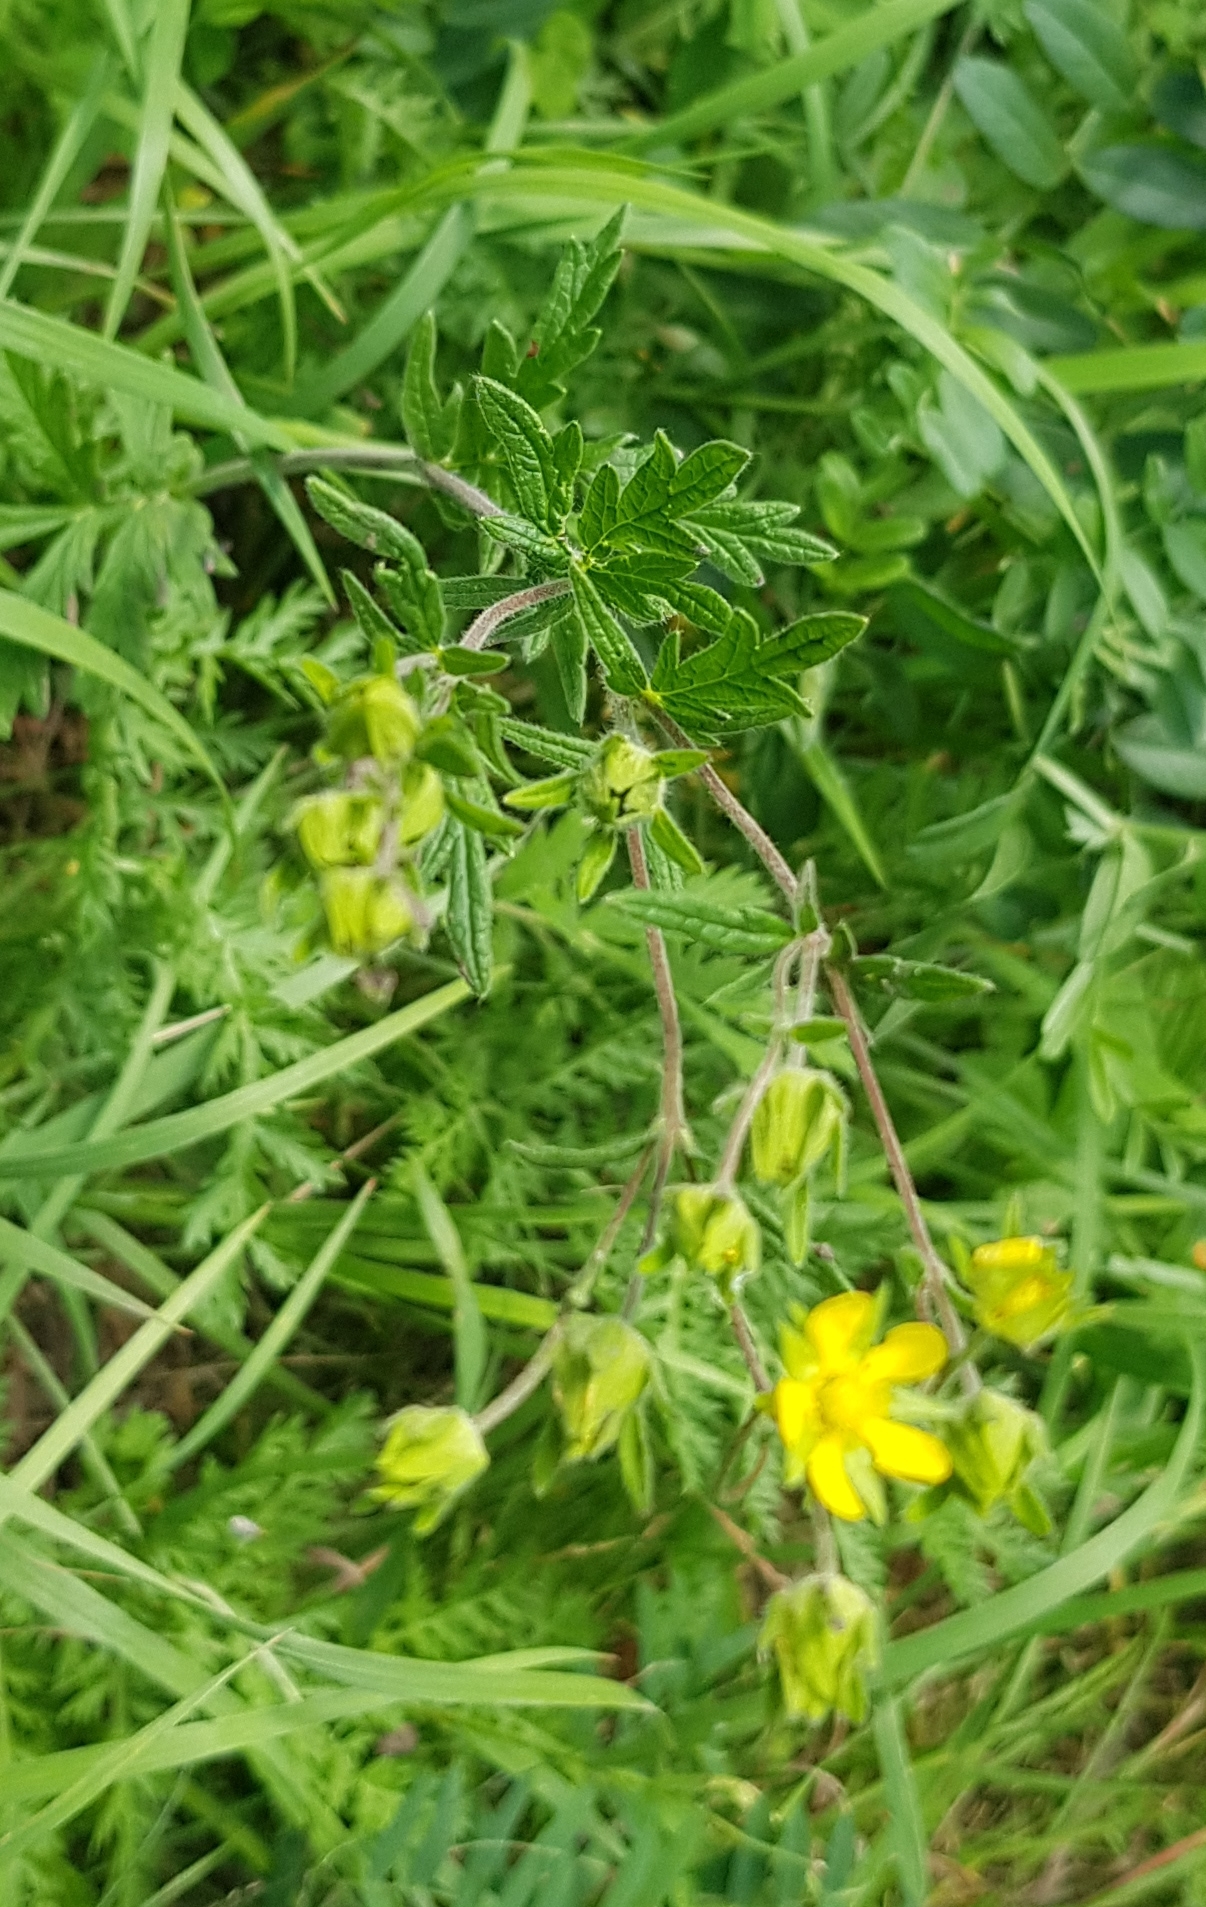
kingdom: Plantae
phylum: Tracheophyta
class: Magnoliopsida
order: Rosales
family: Rosaceae
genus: Potentilla
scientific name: Potentilla tanacetifolia
